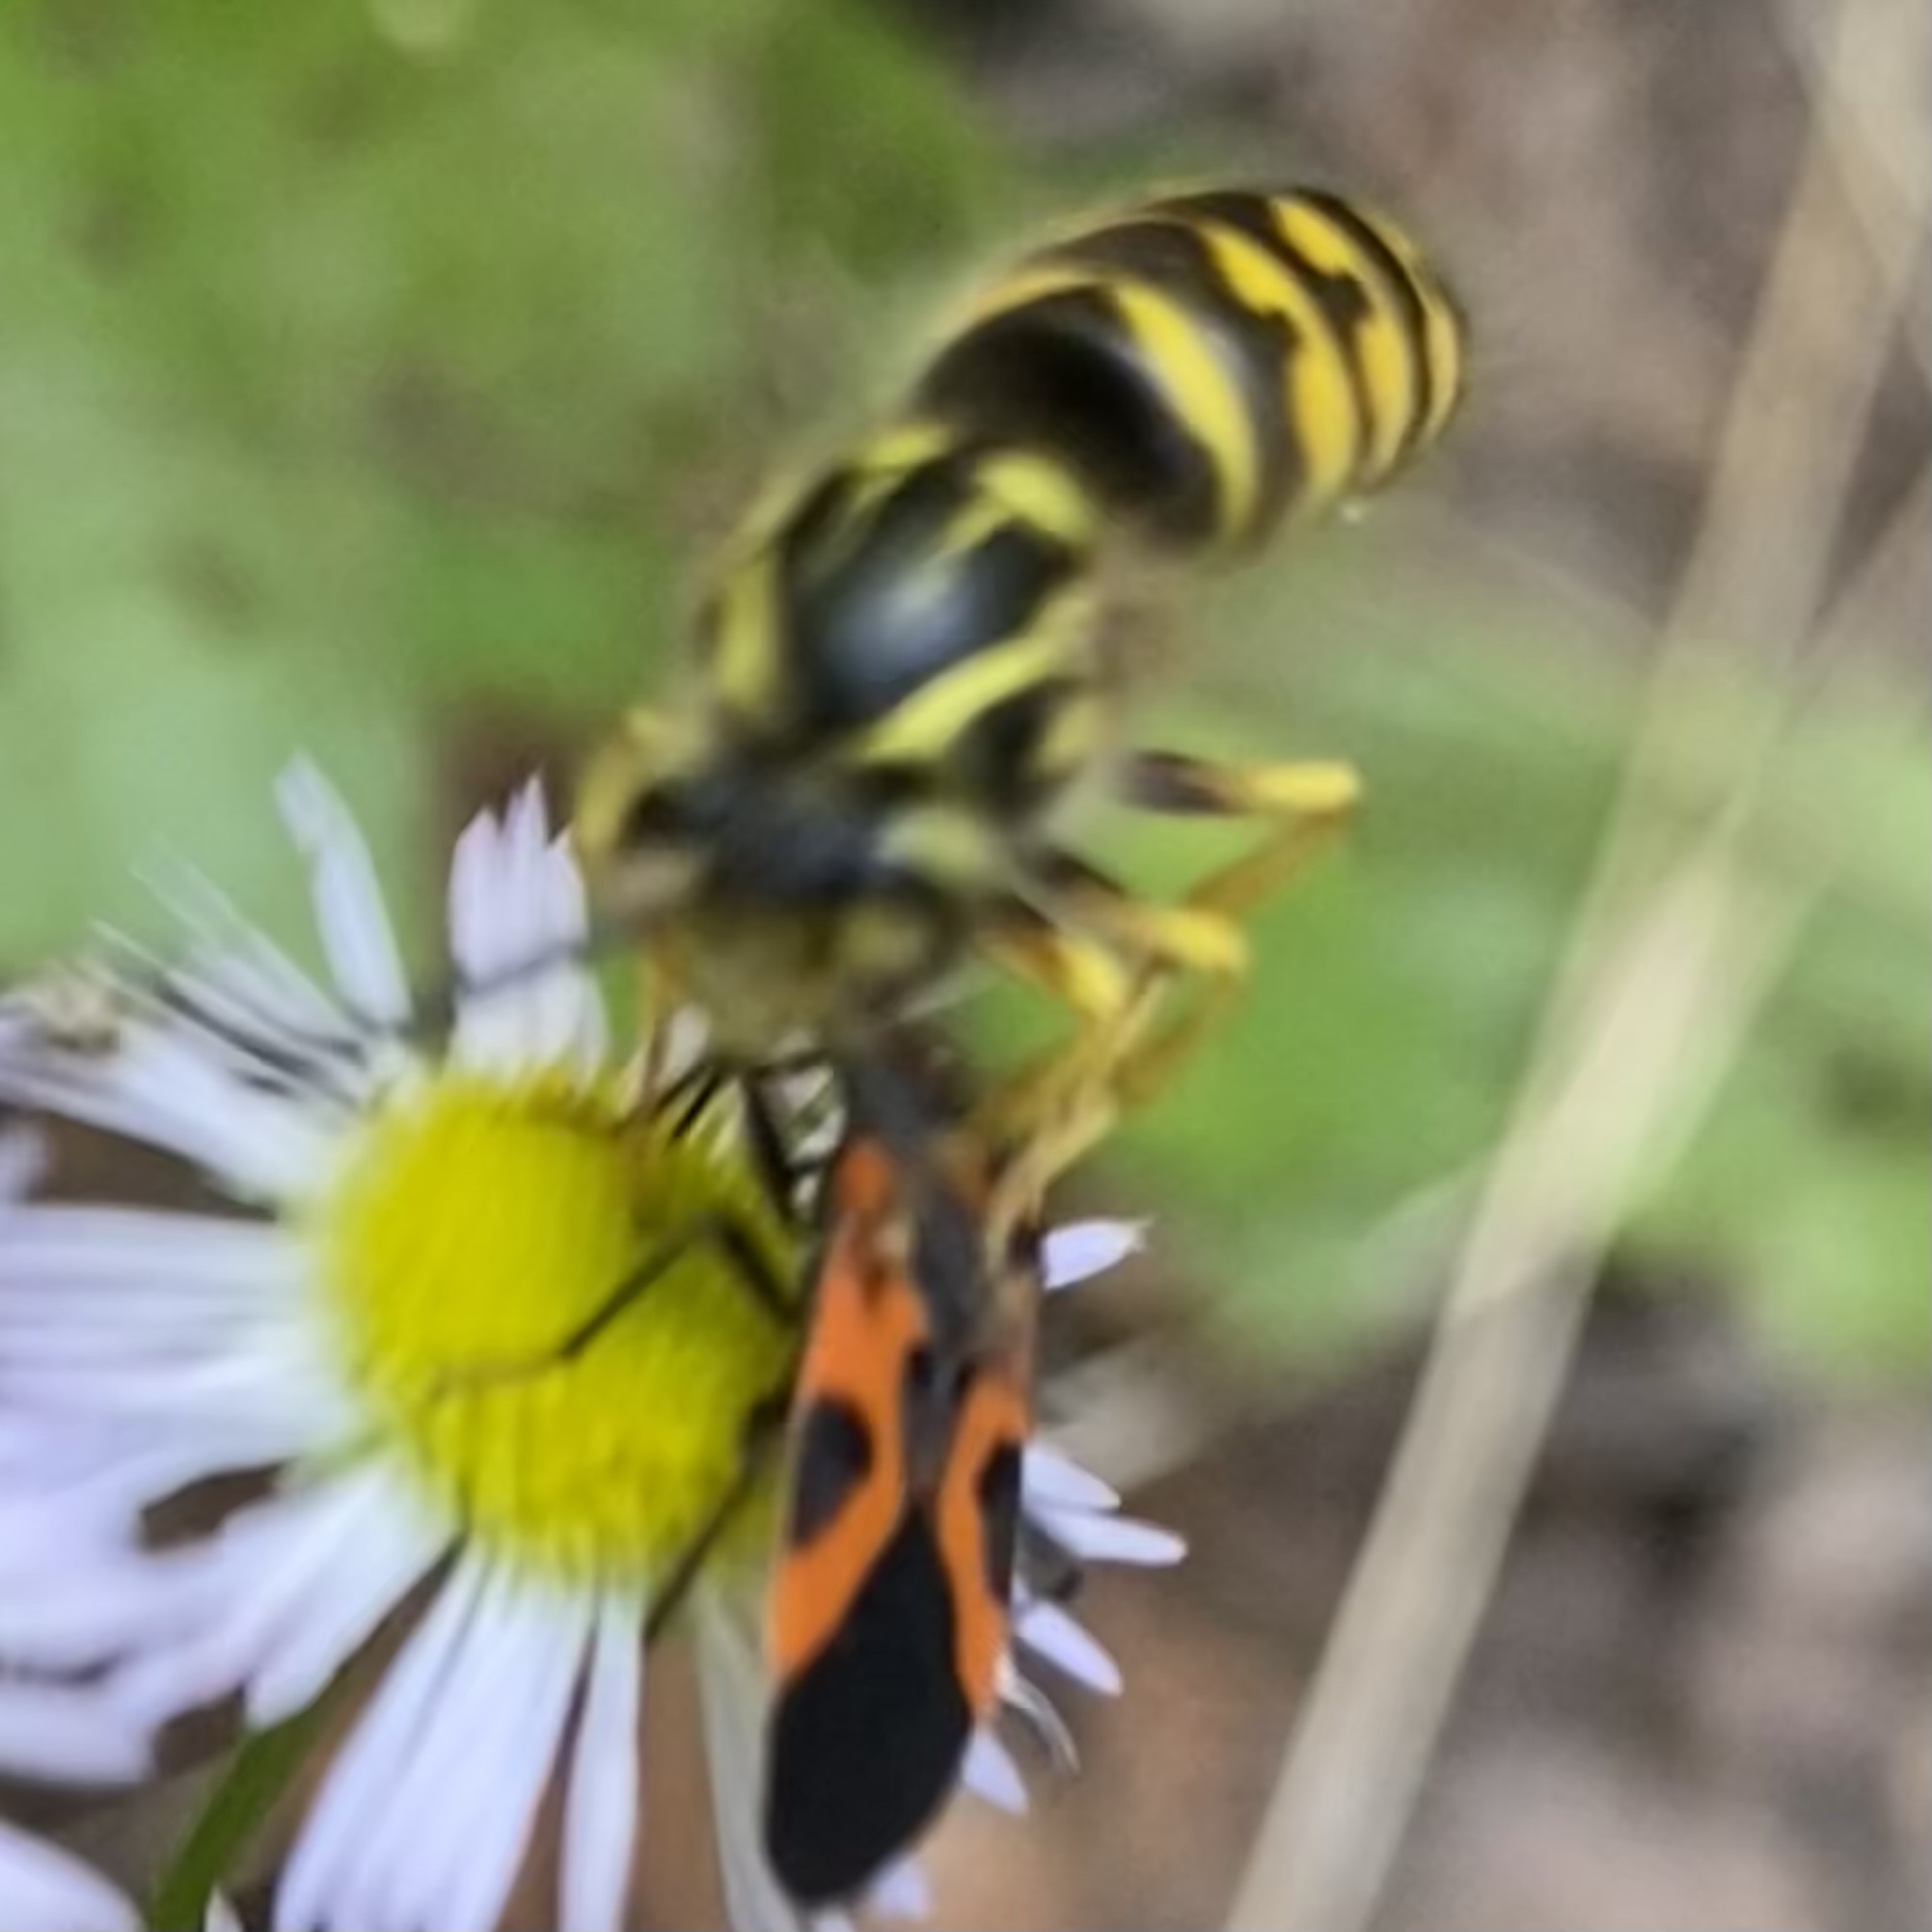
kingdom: Animalia
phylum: Arthropoda
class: Insecta
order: Hymenoptera
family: Vespidae
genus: Dolichovespula
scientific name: Dolichovespula arenaria
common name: Aerial yellowjacket
